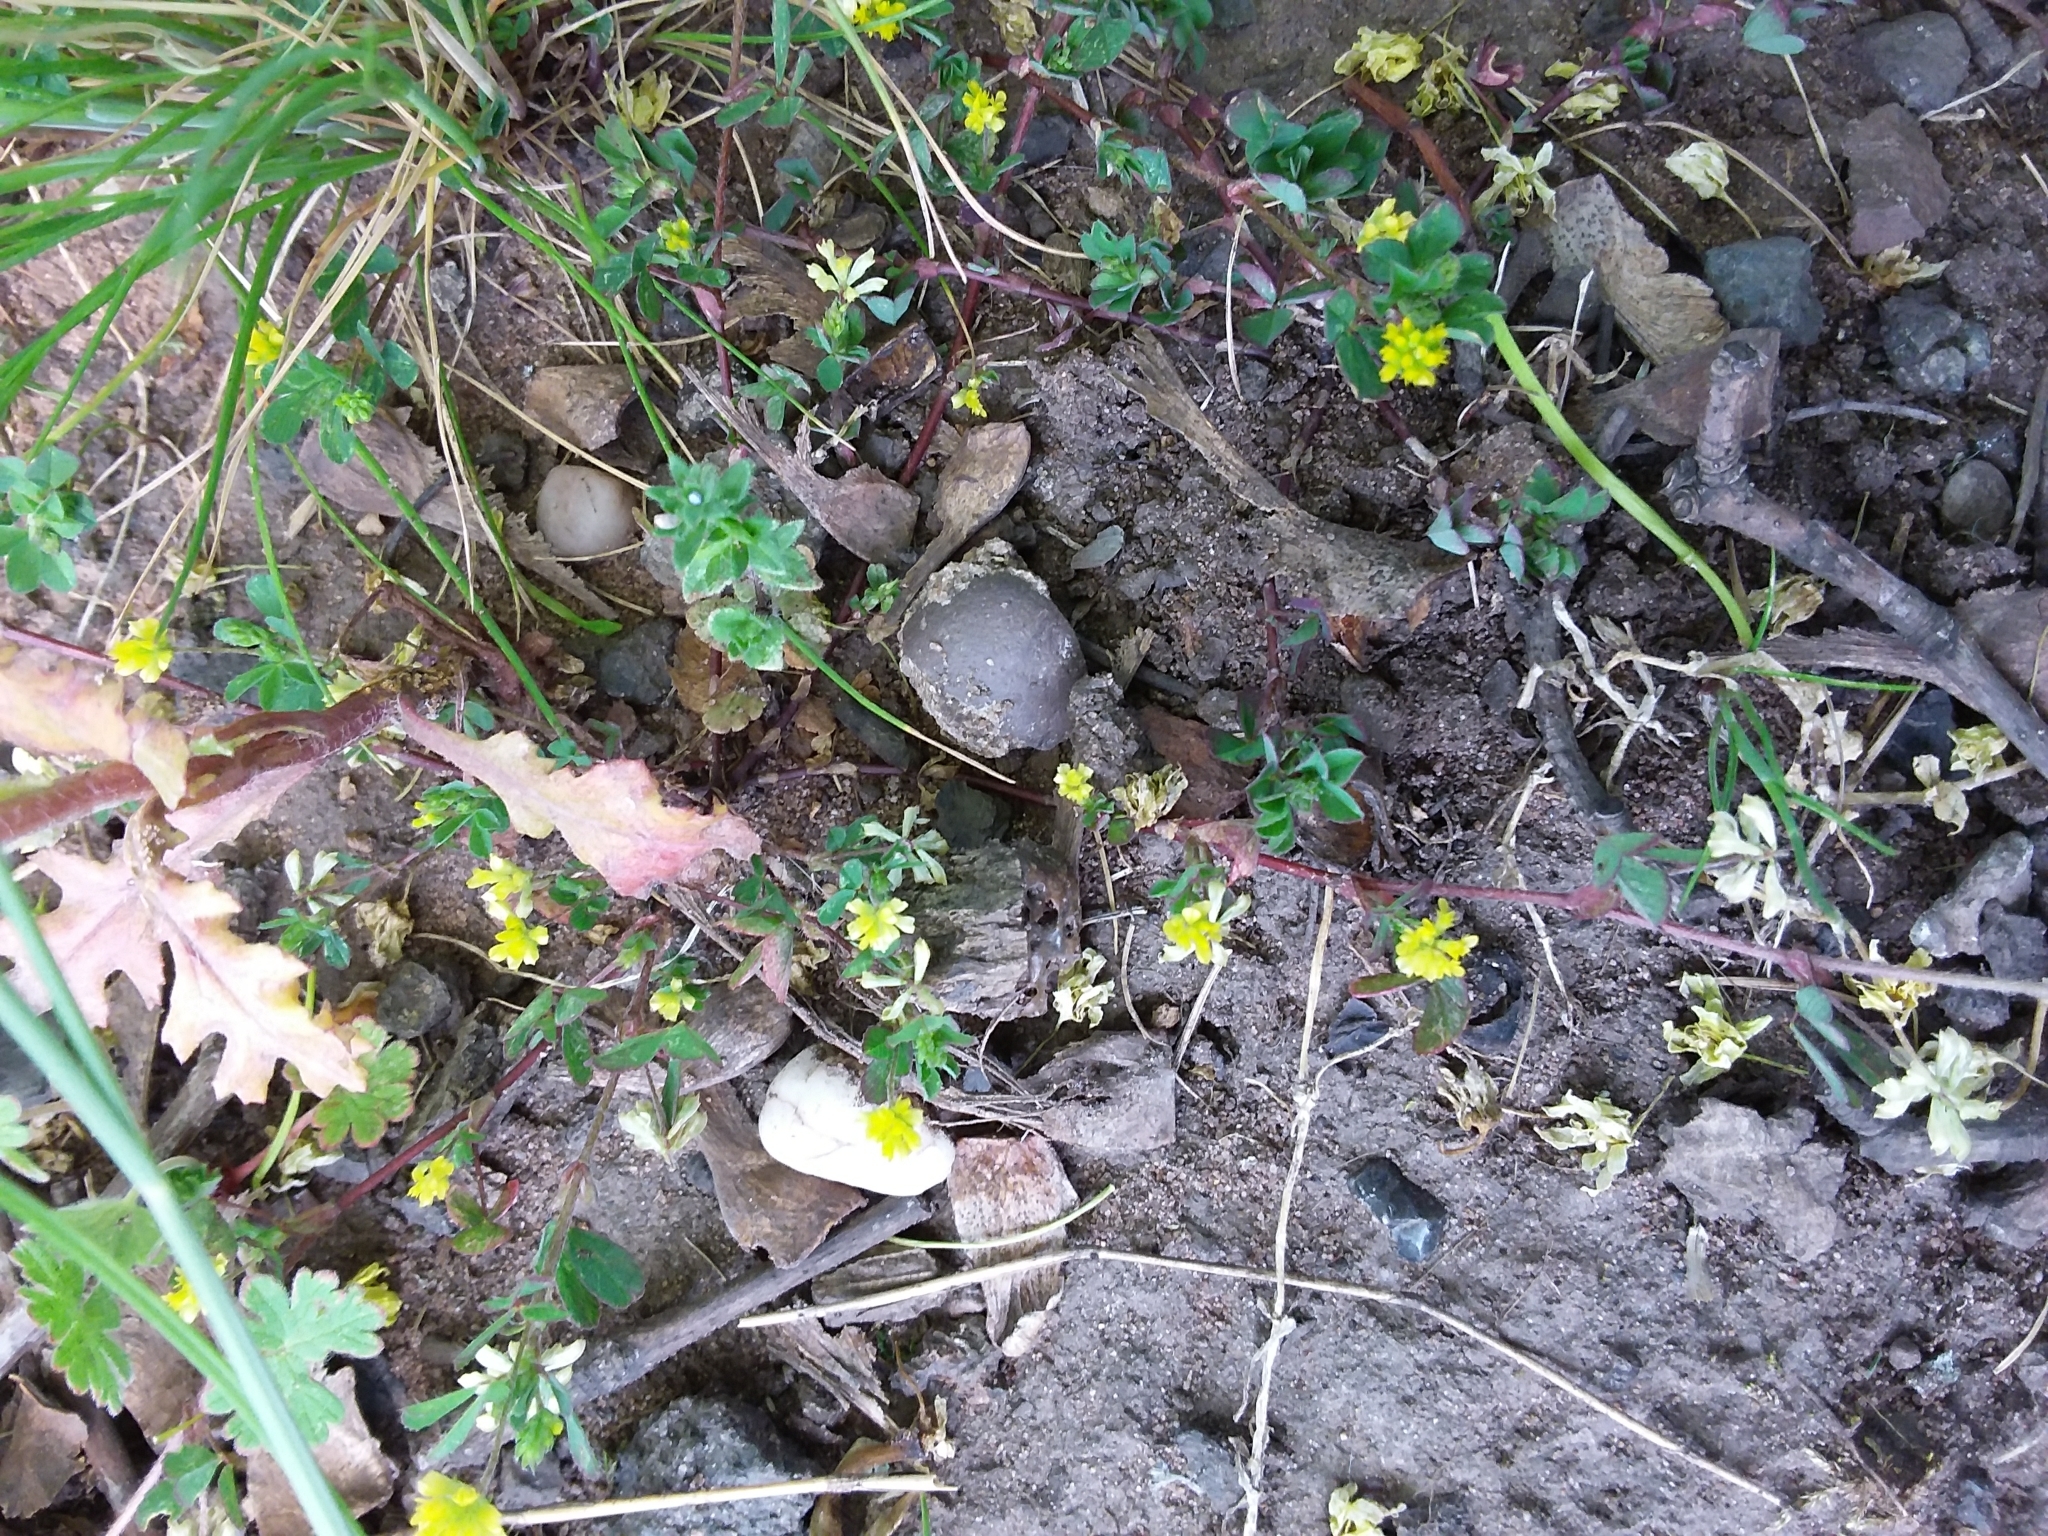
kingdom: Plantae
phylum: Tracheophyta
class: Magnoliopsida
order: Fabales
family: Fabaceae
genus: Trifolium
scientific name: Trifolium dubium
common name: Suckling clover
